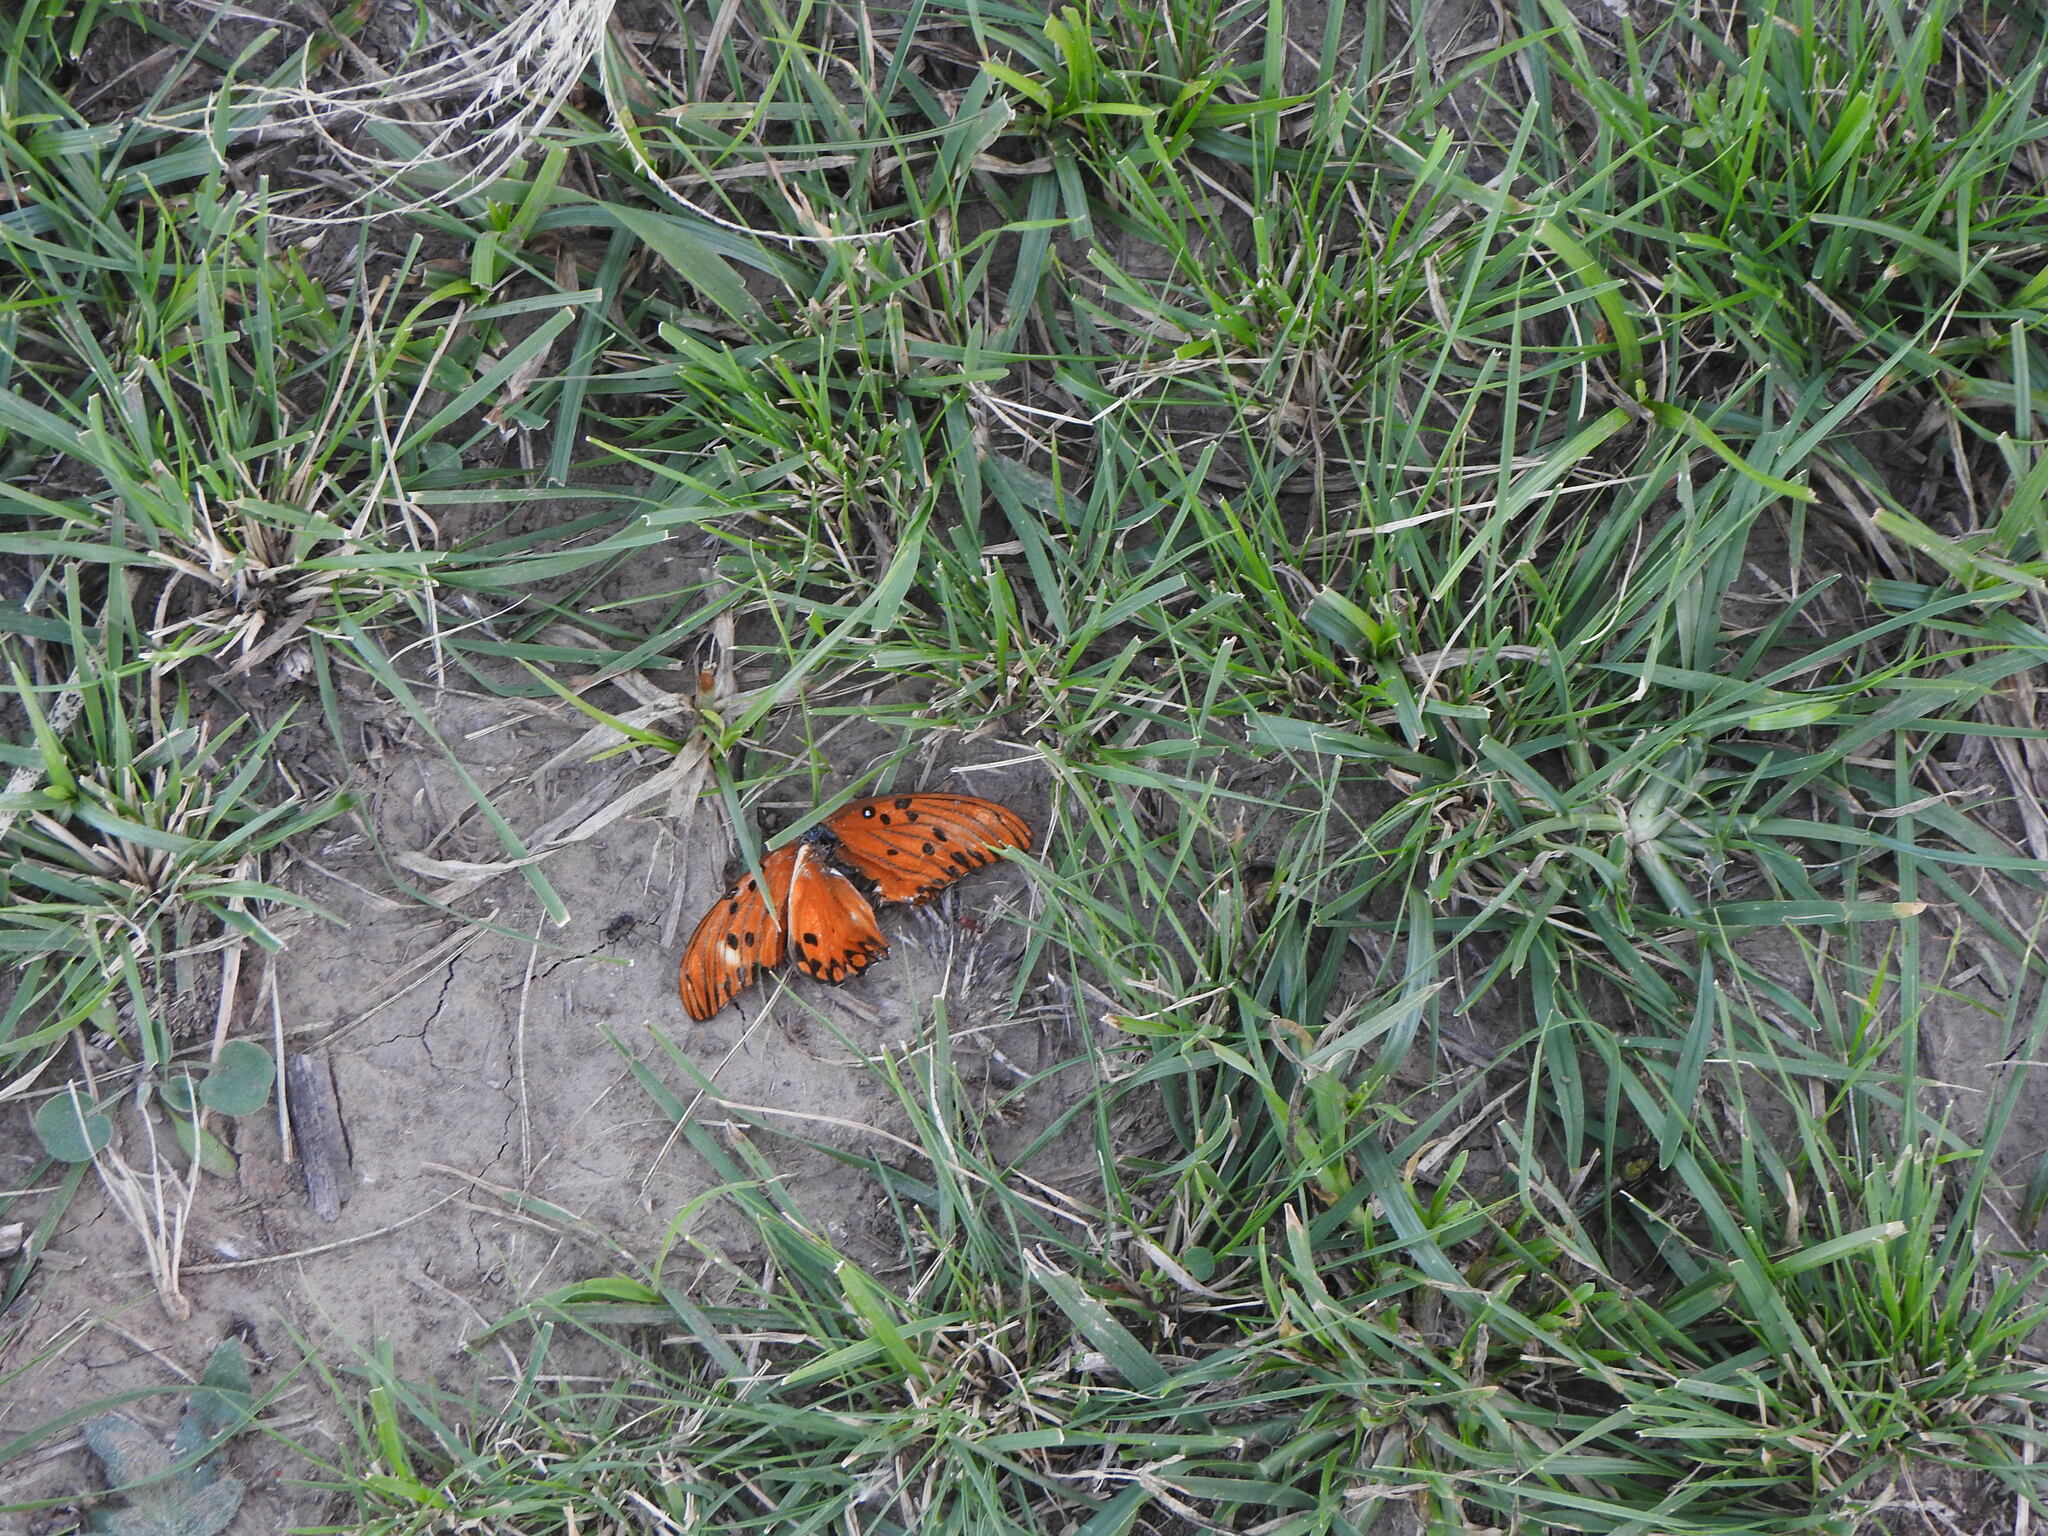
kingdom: Animalia
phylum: Arthropoda
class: Insecta
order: Lepidoptera
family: Nymphalidae
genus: Dione
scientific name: Dione vanillae
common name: Gulf fritillary
